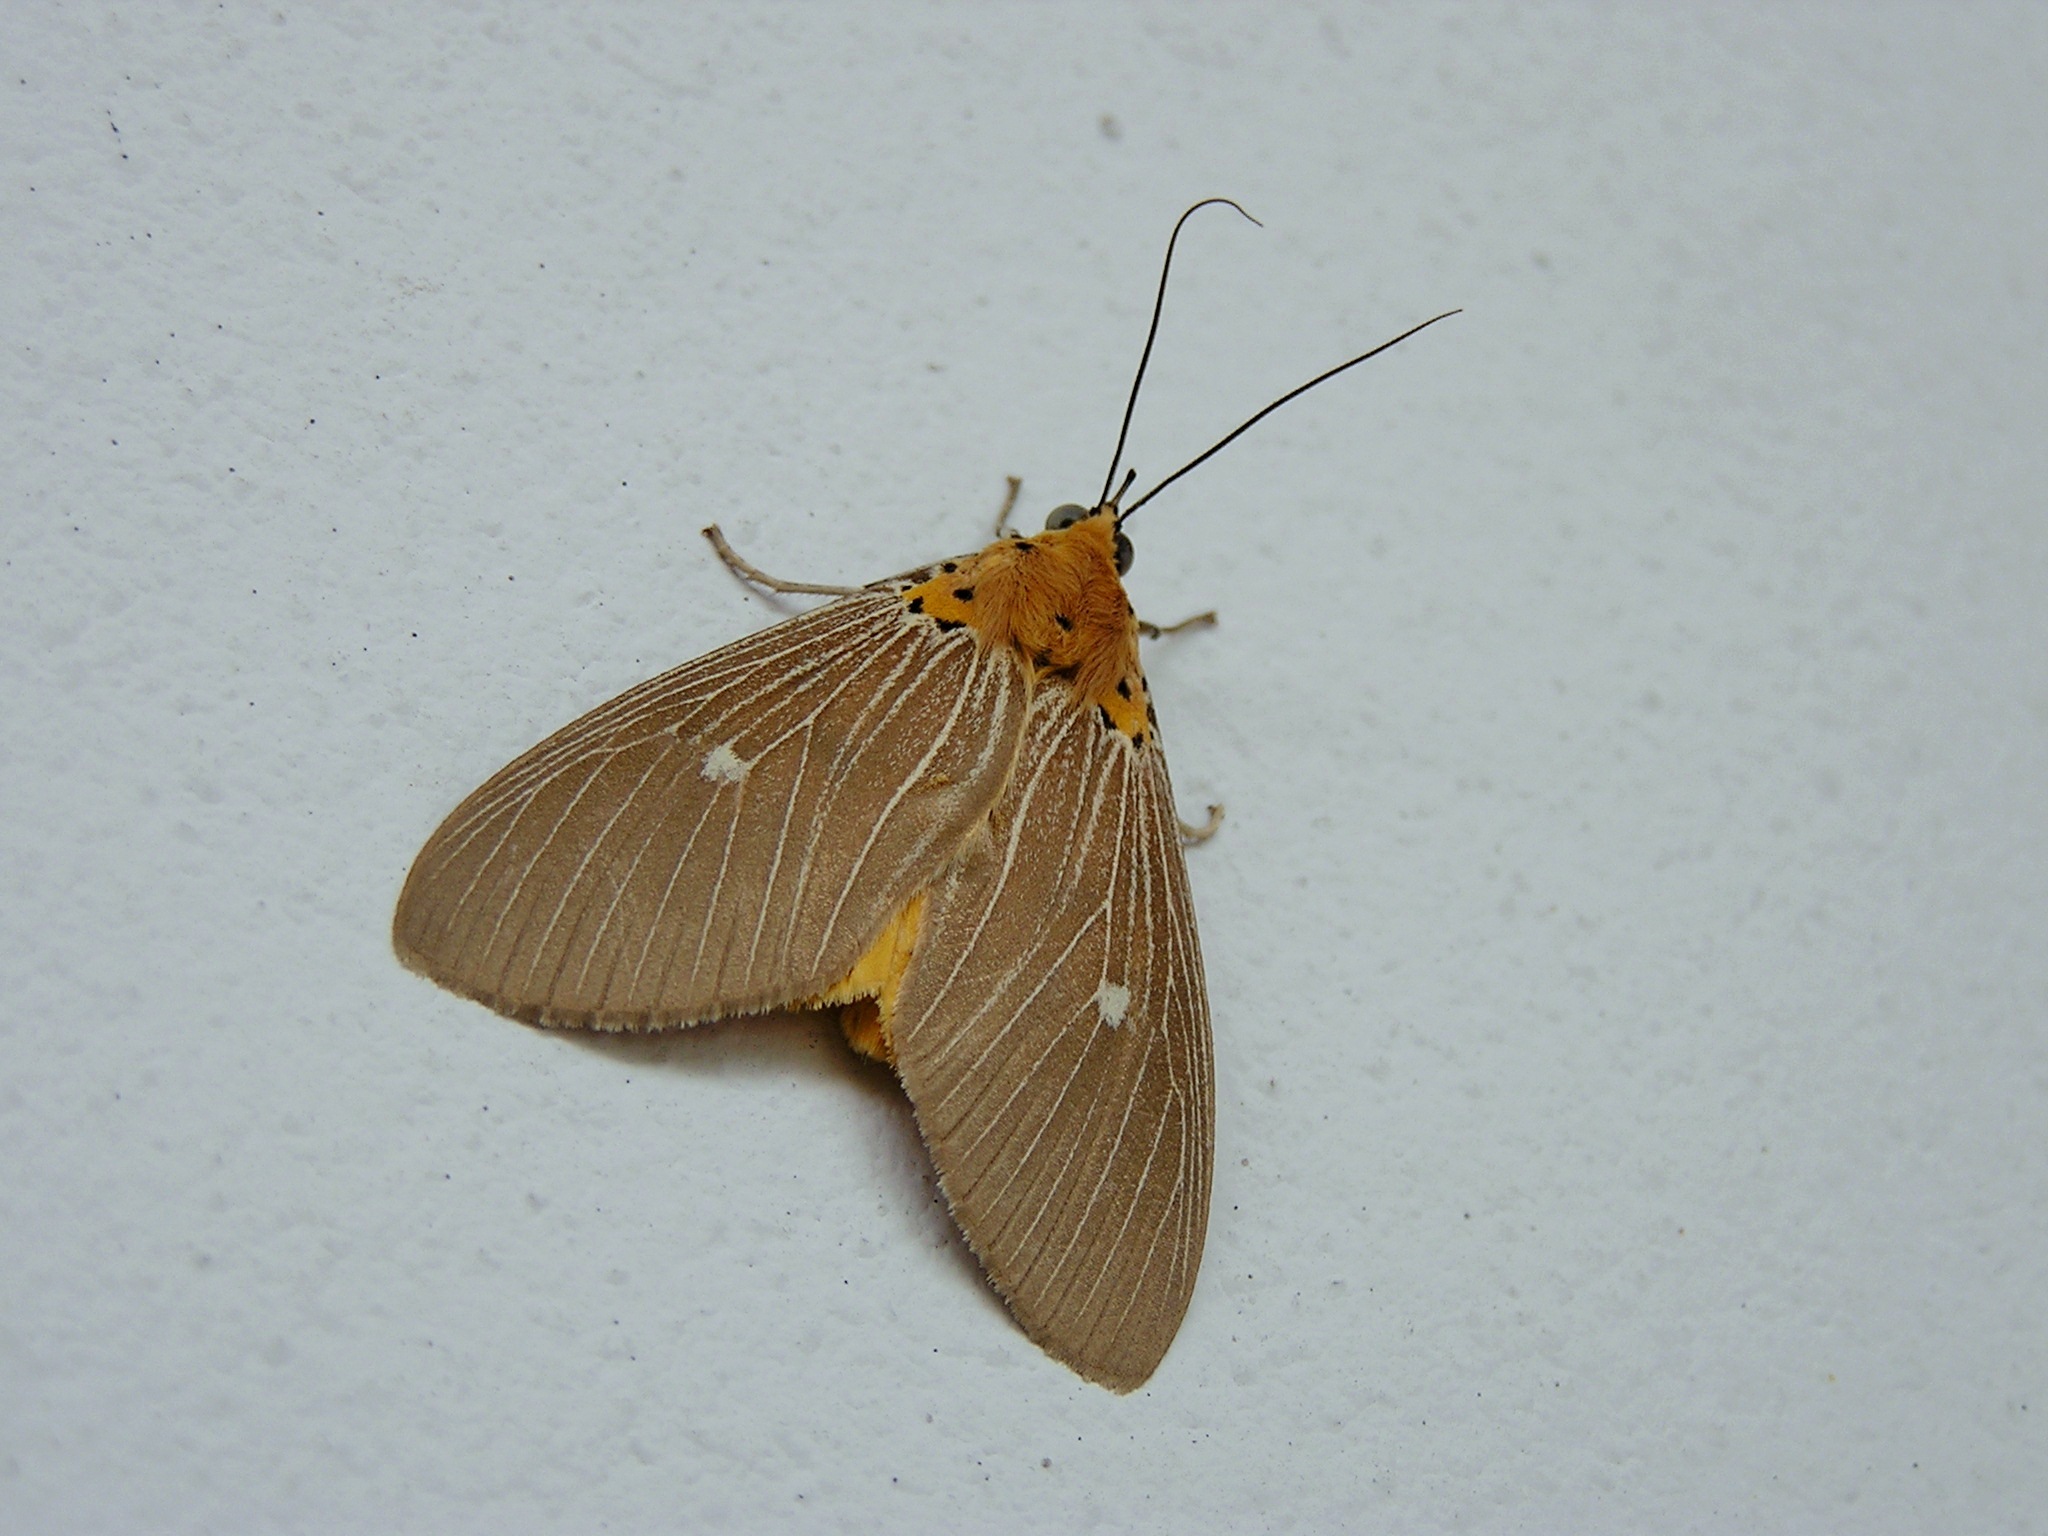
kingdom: Animalia
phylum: Arthropoda
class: Insecta
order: Lepidoptera
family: Erebidae
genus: Asota
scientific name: Asota caricae
